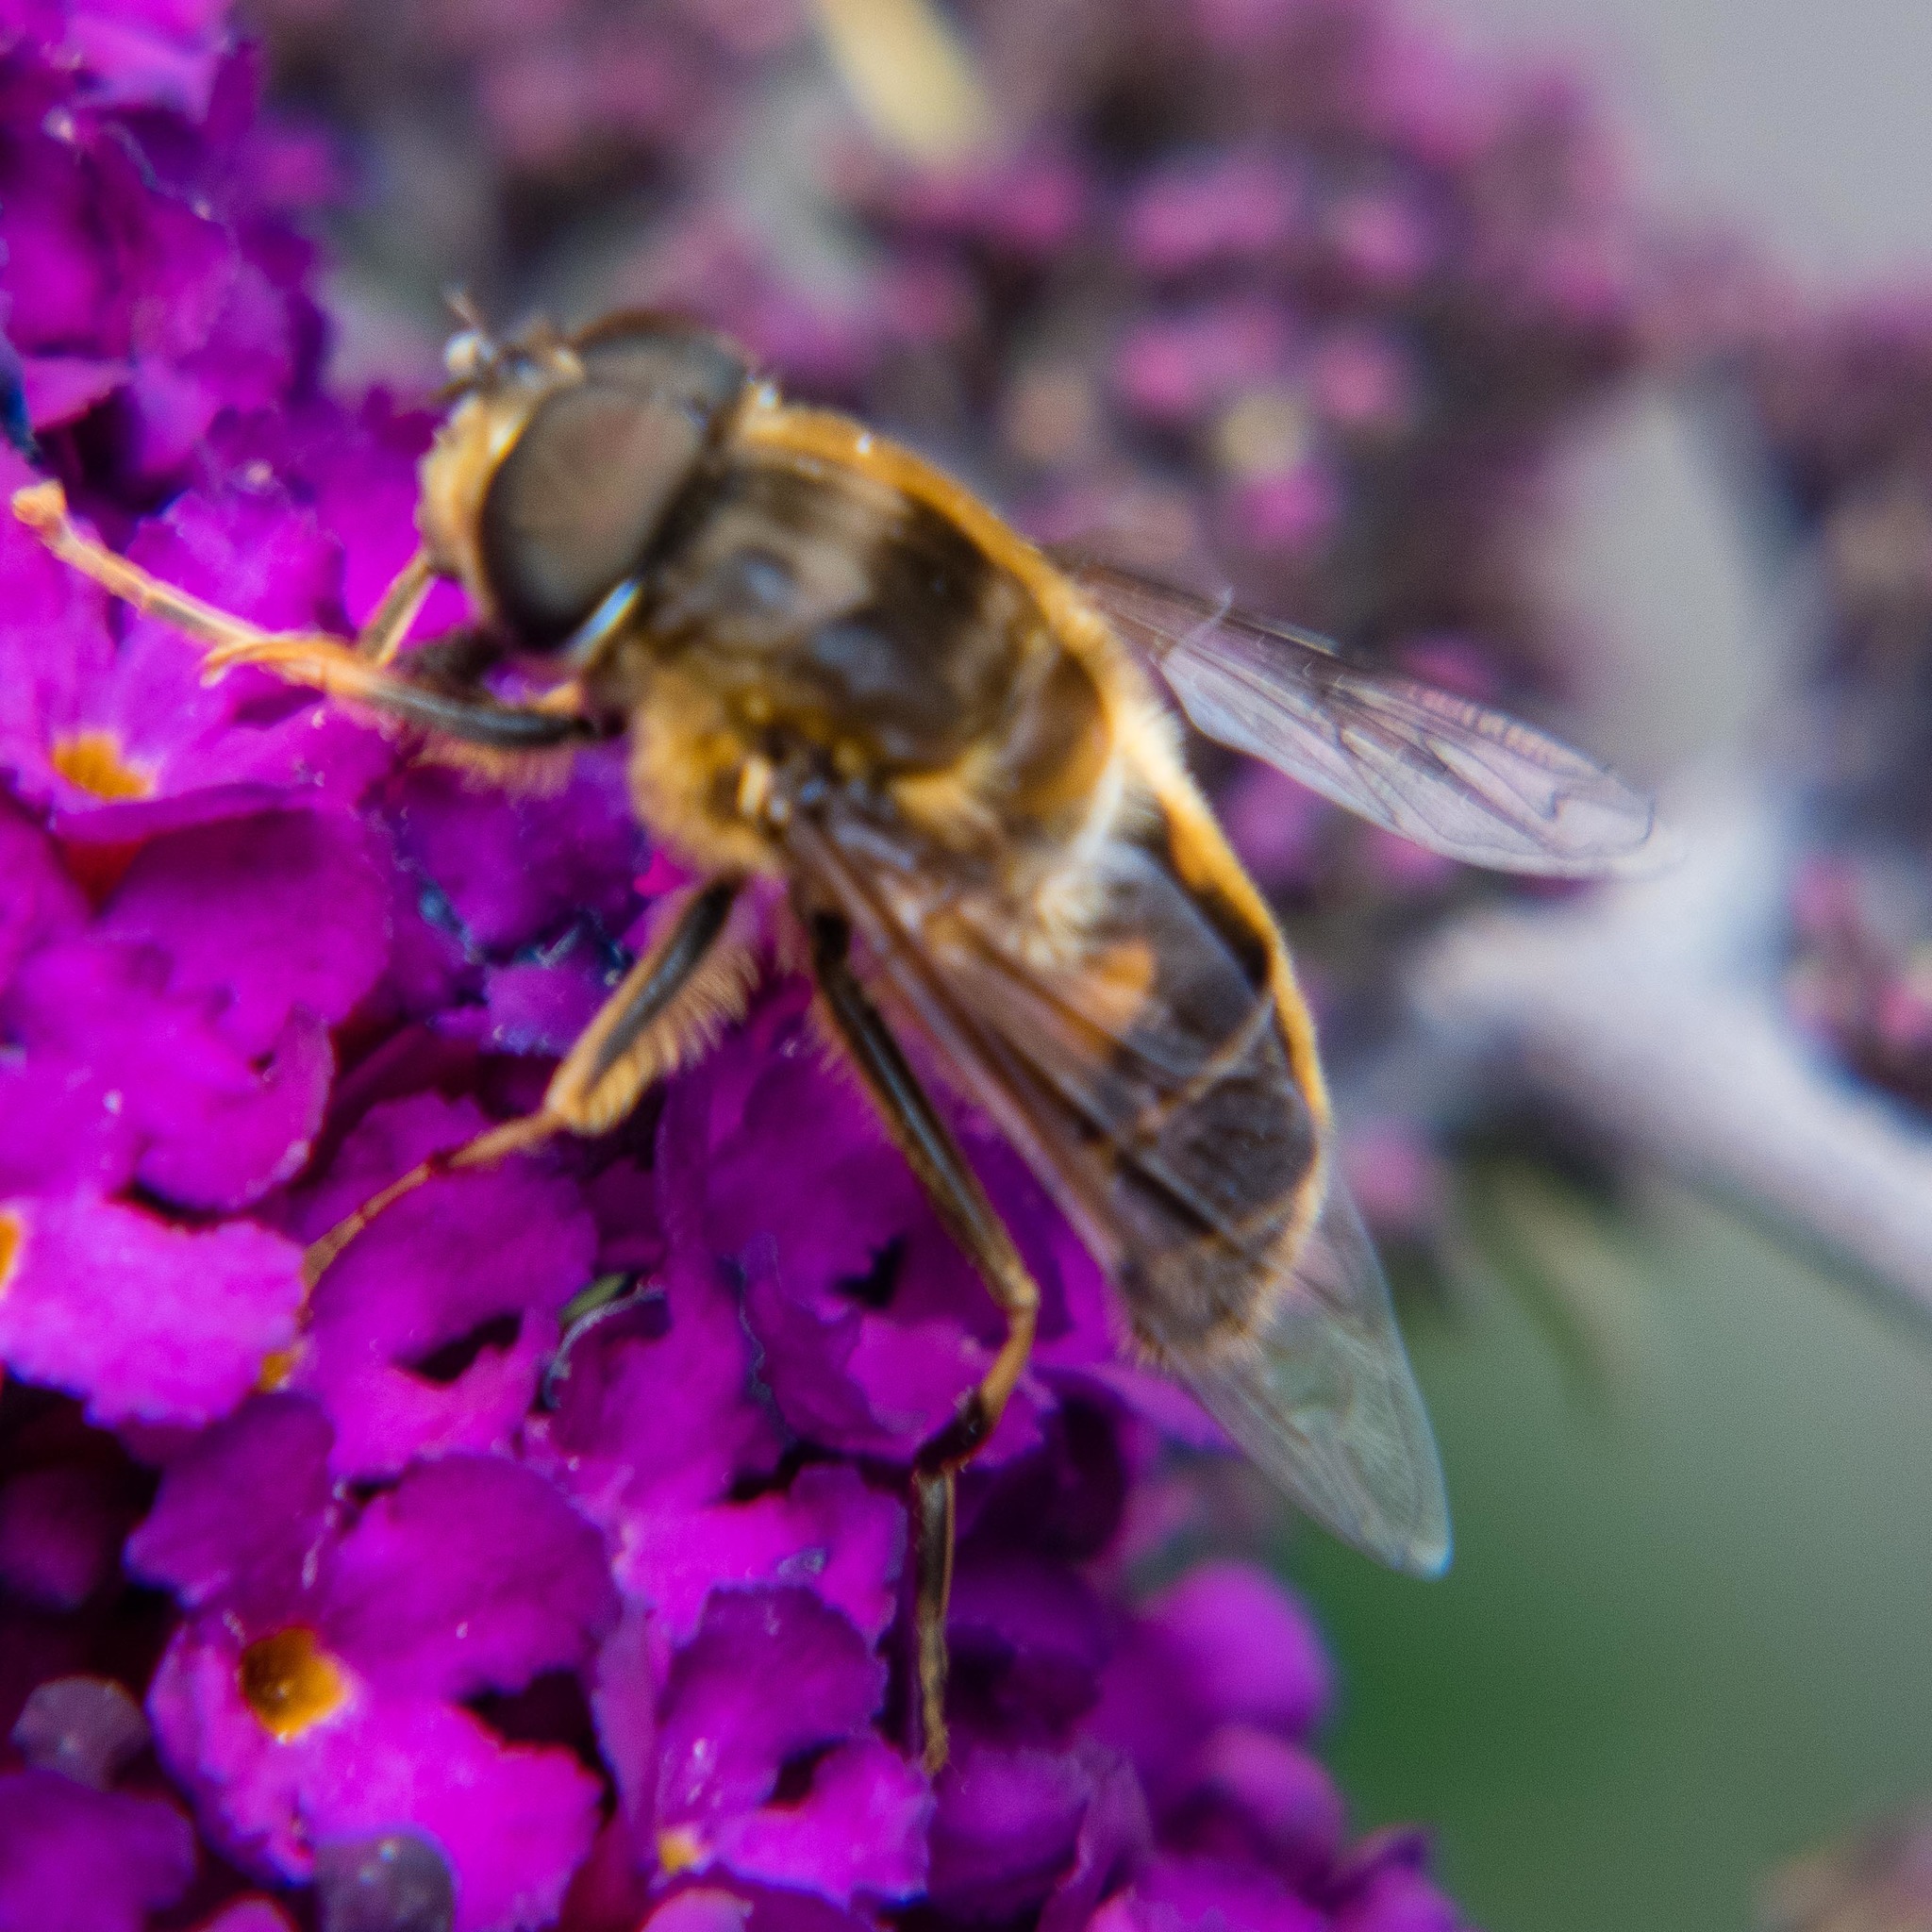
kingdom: Animalia
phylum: Arthropoda
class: Insecta
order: Diptera
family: Syrphidae
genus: Eristalis
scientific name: Eristalis pertinax
